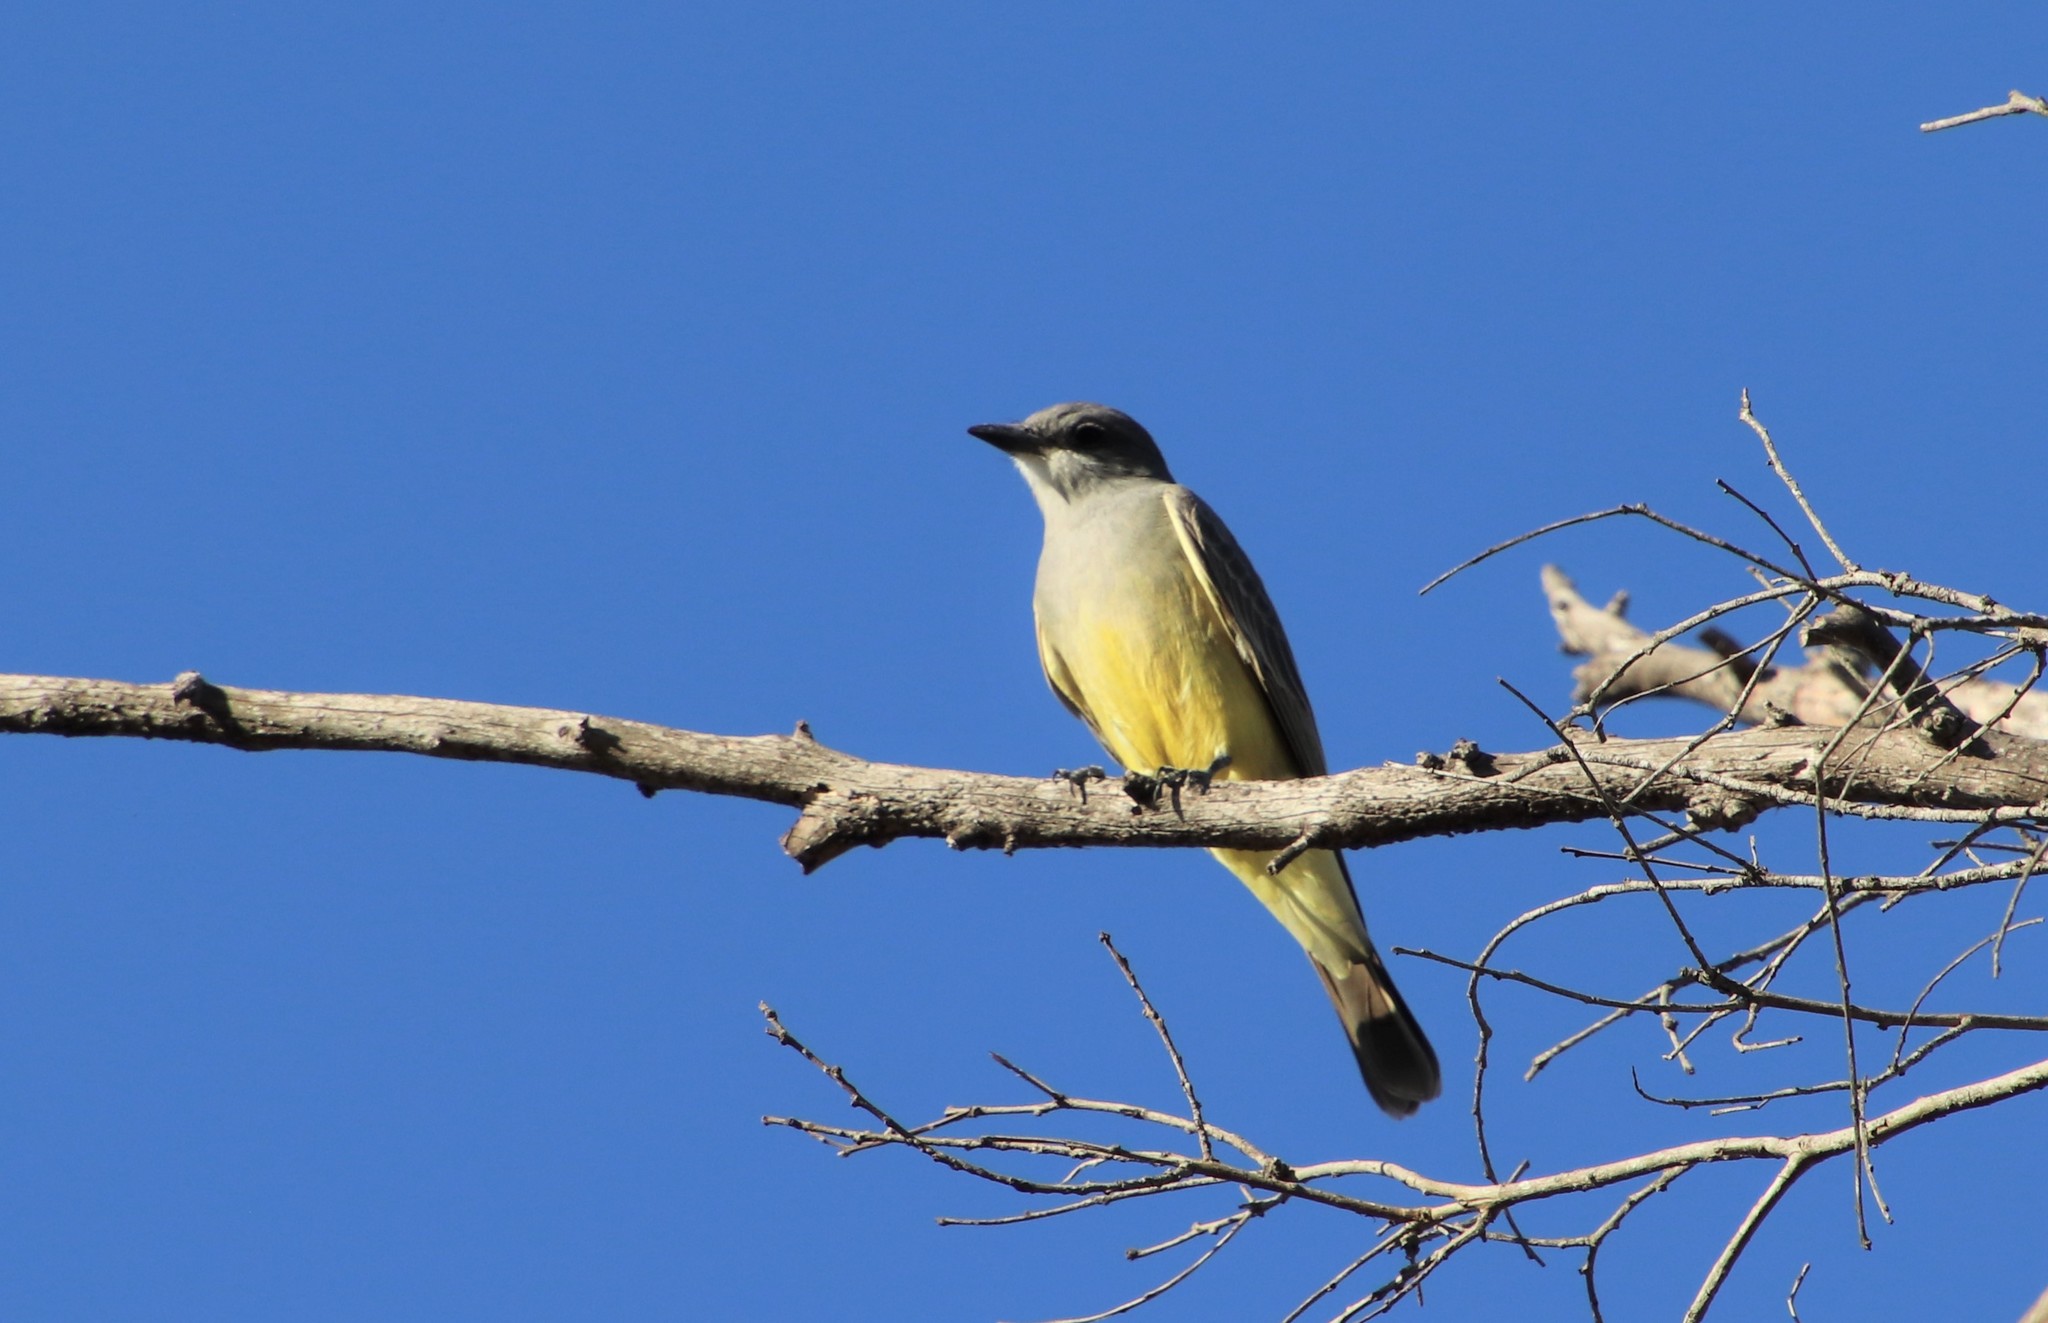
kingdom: Animalia
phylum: Chordata
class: Aves
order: Passeriformes
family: Tyrannidae
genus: Tyrannus
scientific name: Tyrannus vociferans
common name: Cassin's kingbird
